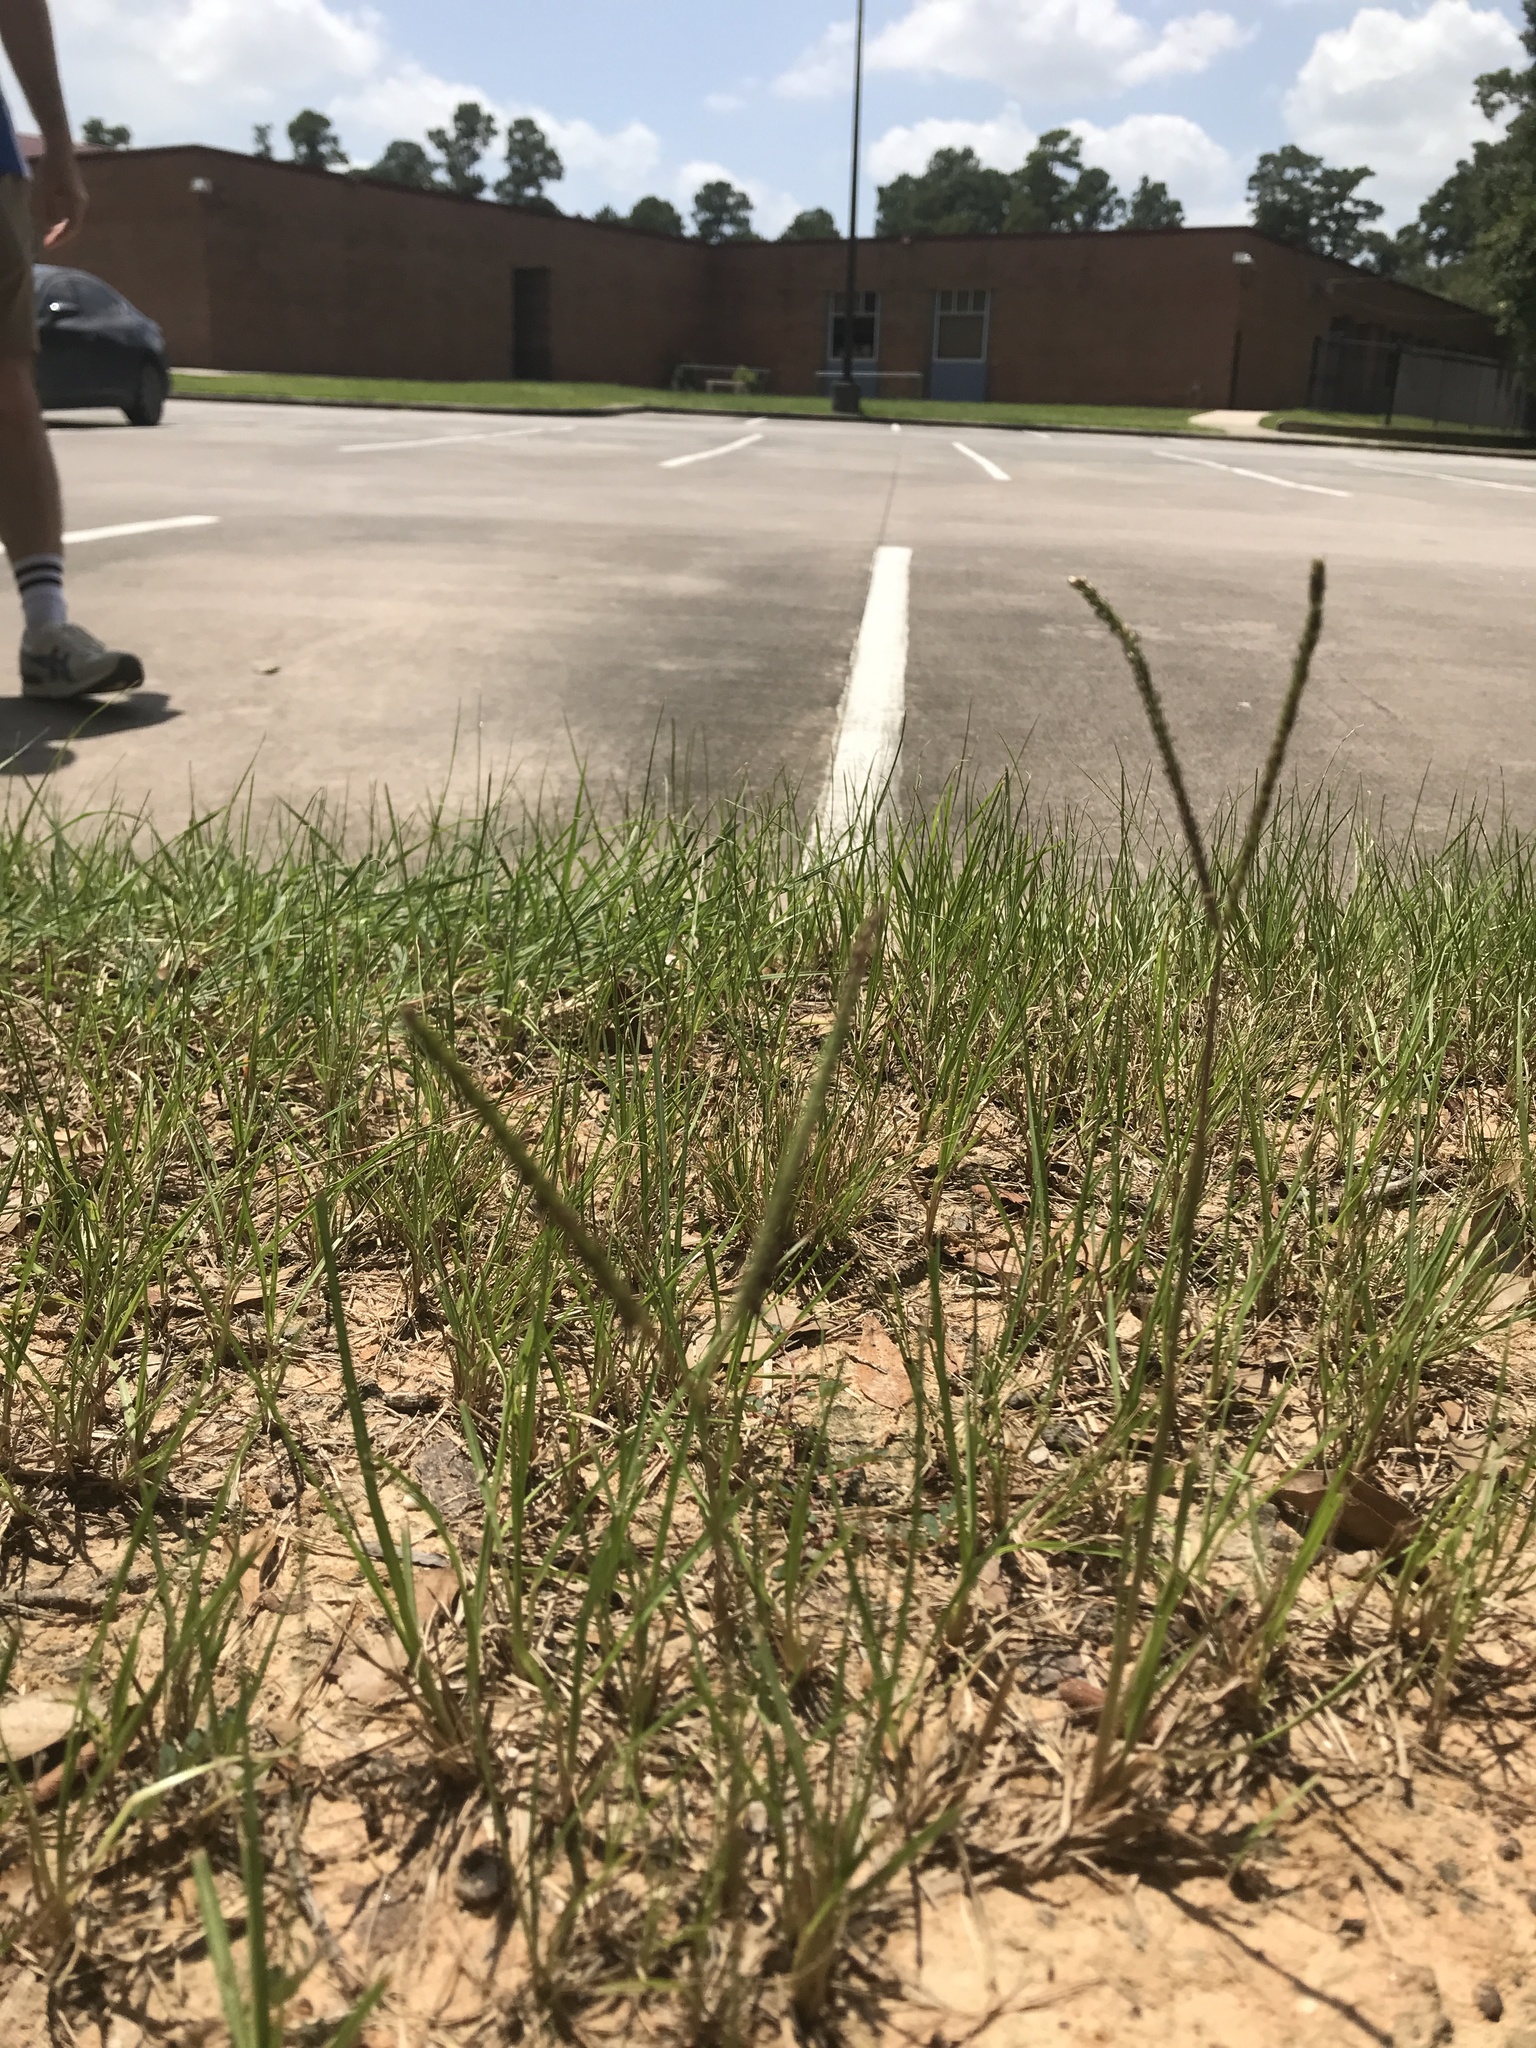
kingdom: Plantae
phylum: Tracheophyta
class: Liliopsida
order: Poales
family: Poaceae
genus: Paspalum
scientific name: Paspalum notatum
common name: Bahiagrass
